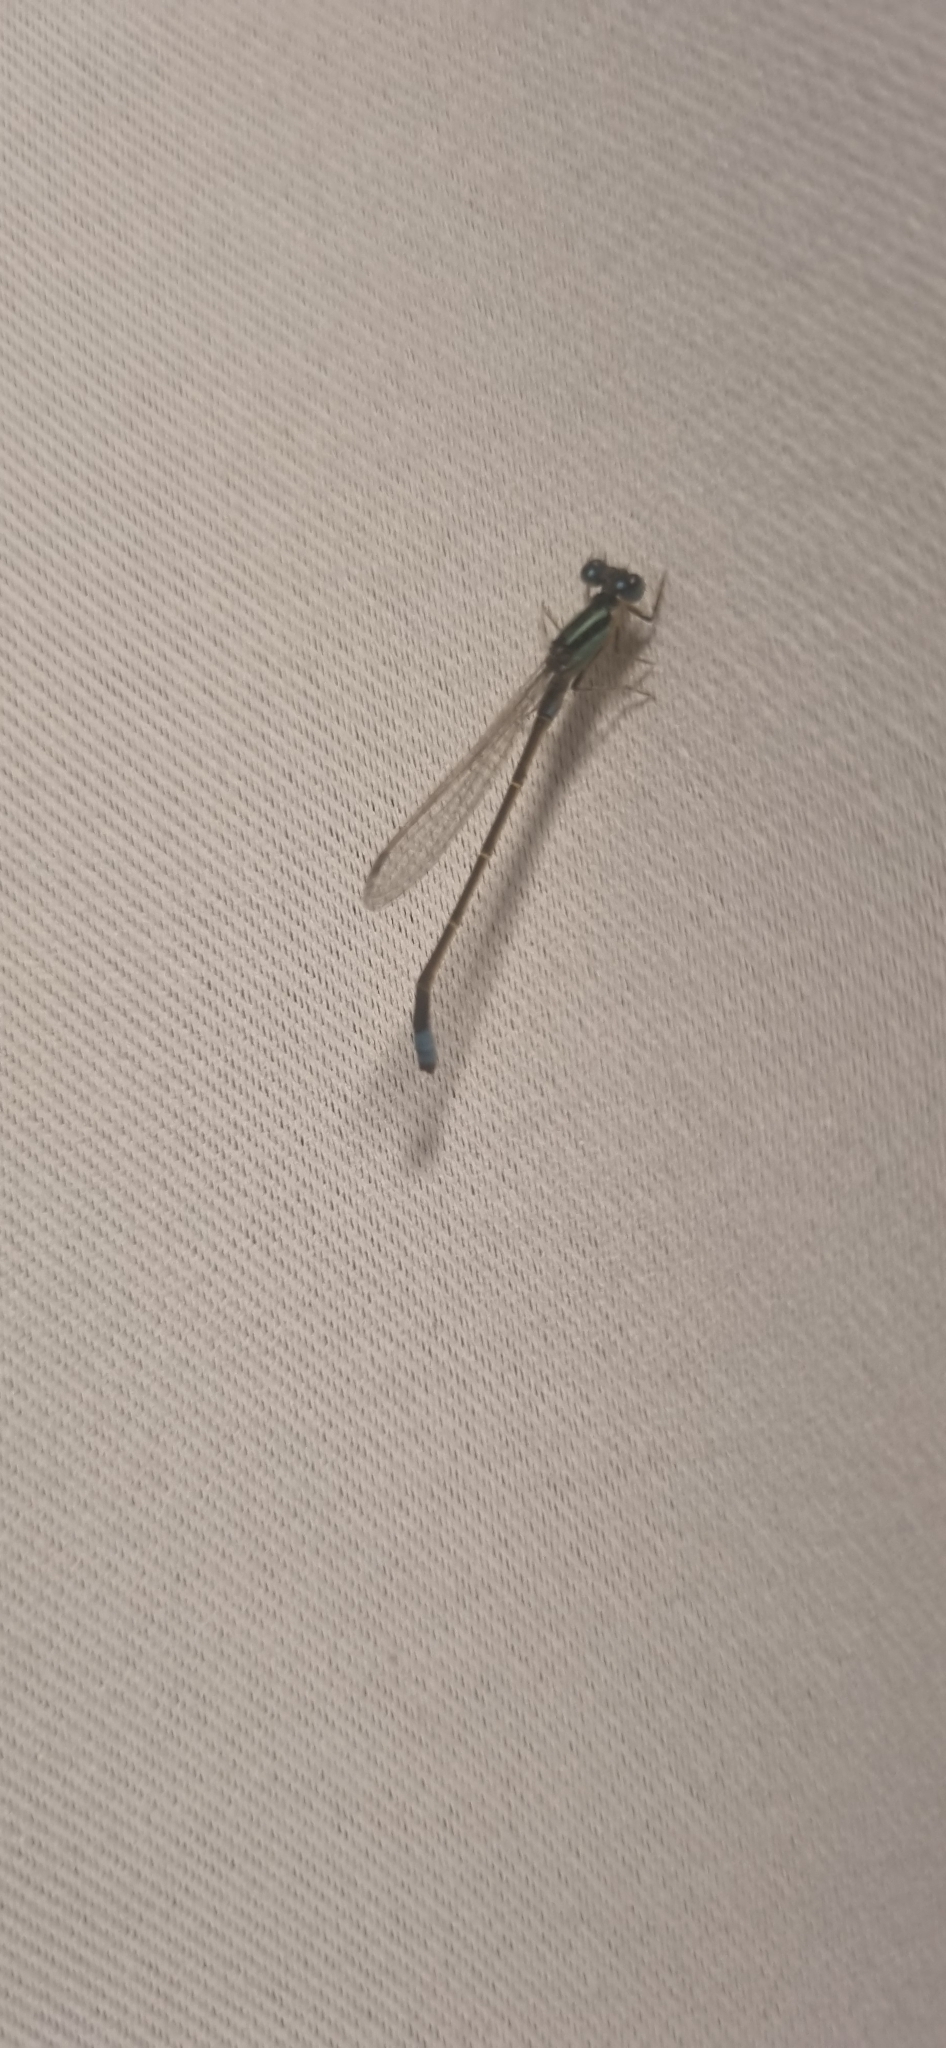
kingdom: Animalia
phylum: Arthropoda
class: Insecta
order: Odonata
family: Coenagrionidae
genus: Ischnura
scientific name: Ischnura fluviatilis
